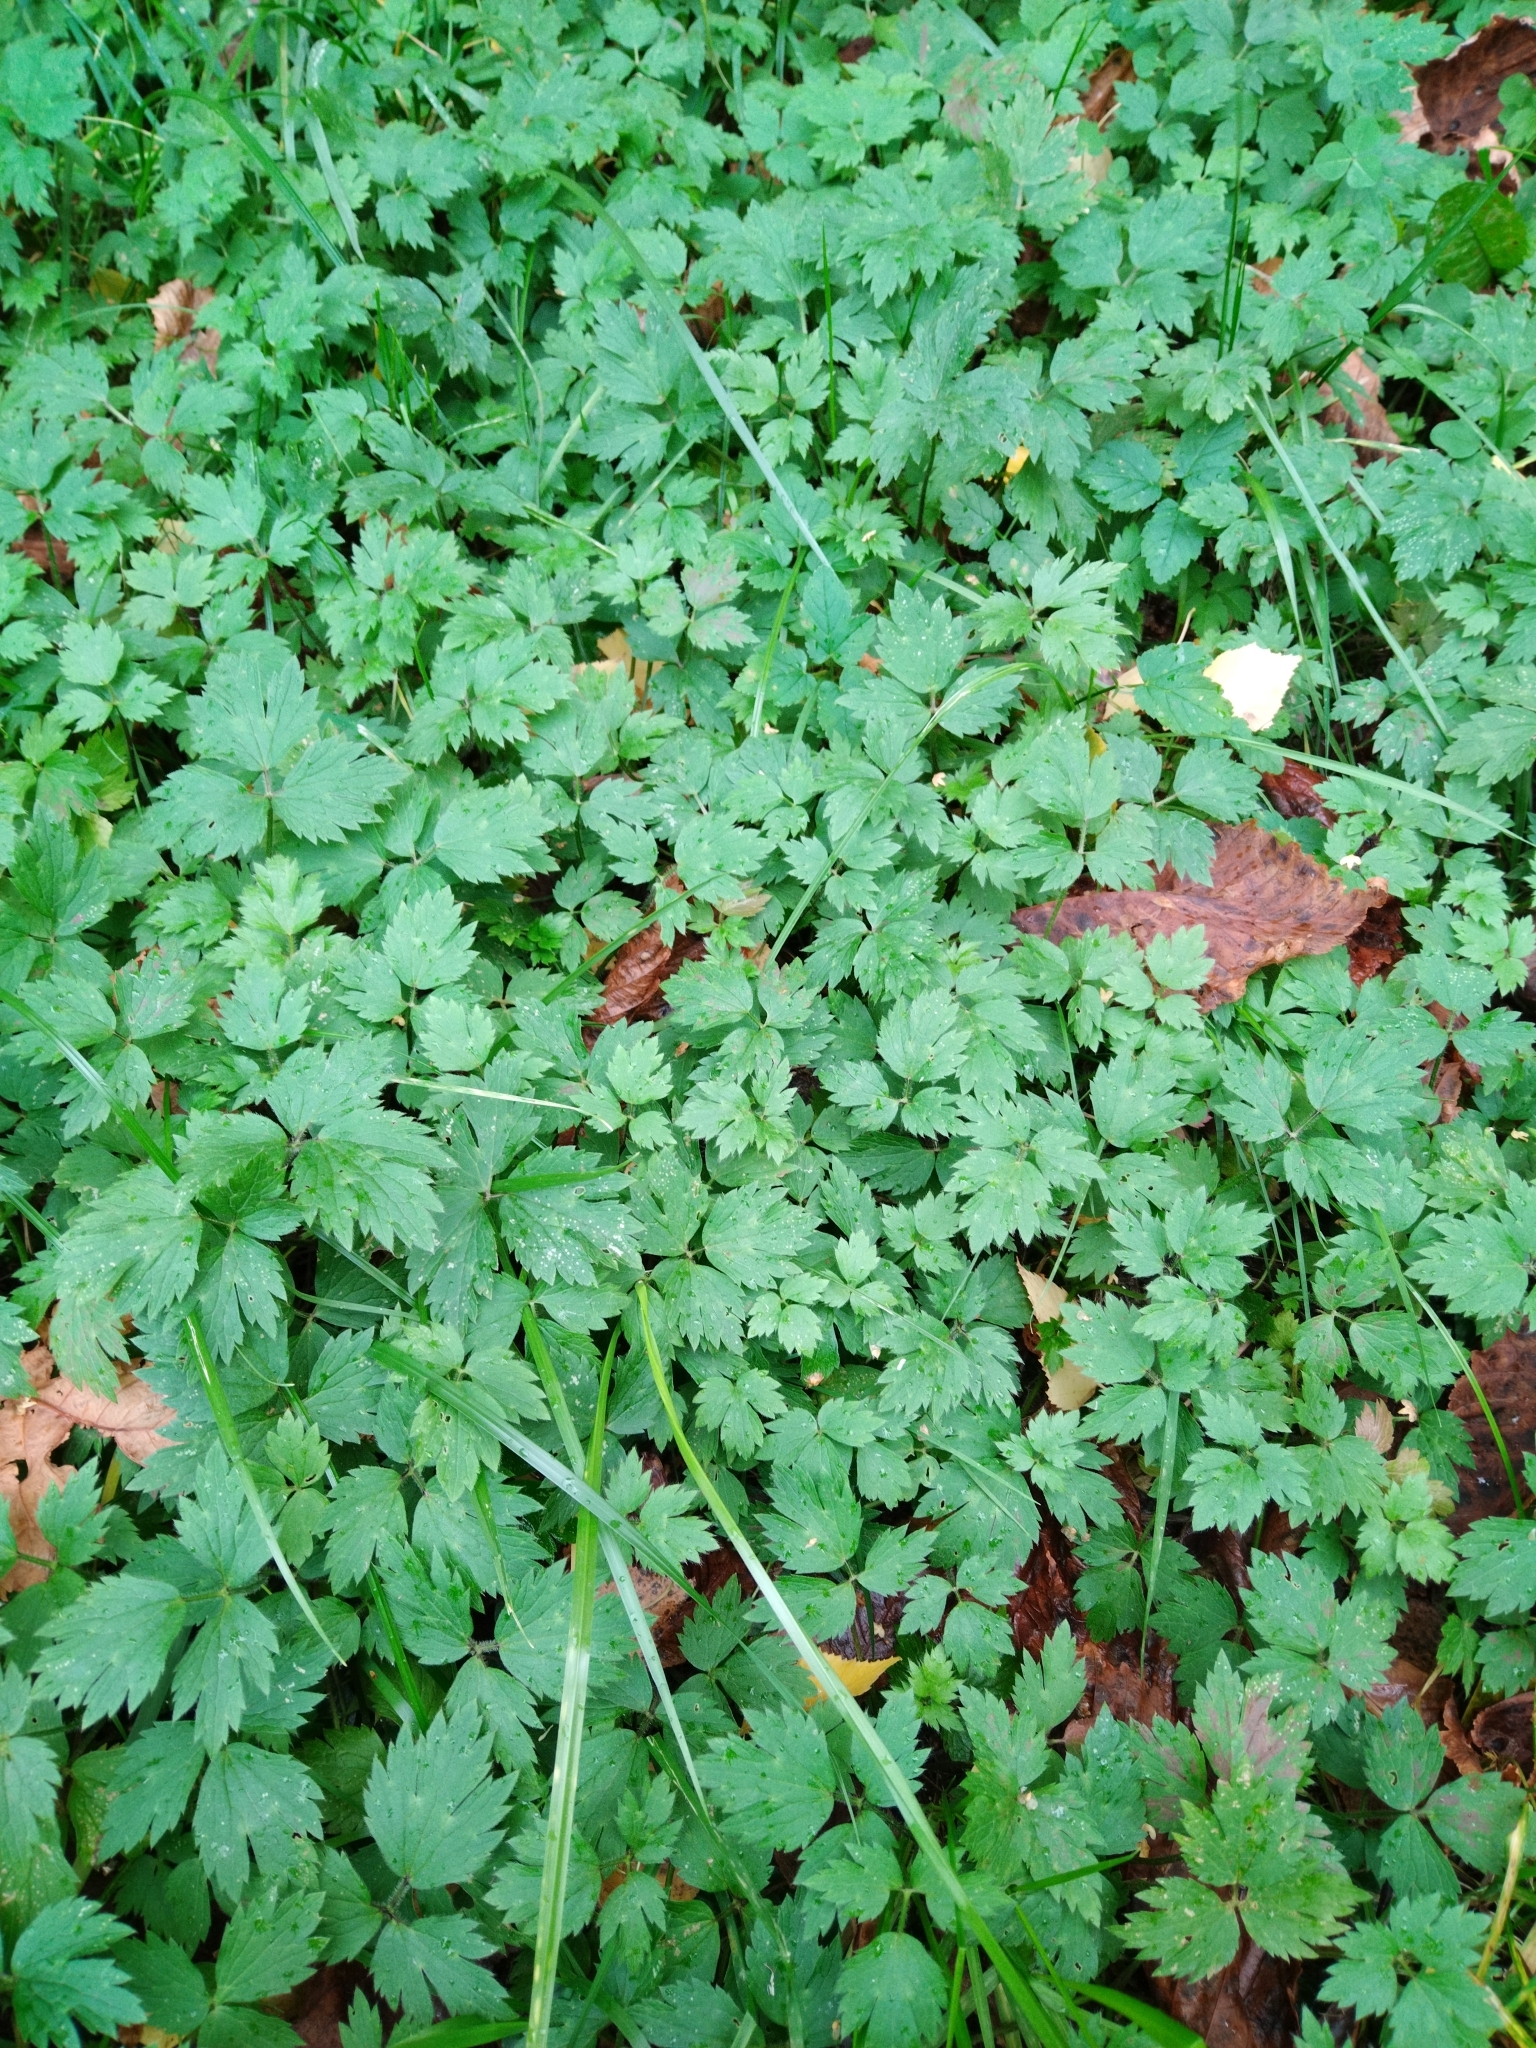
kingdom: Plantae
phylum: Tracheophyta
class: Magnoliopsida
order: Ranunculales
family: Ranunculaceae
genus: Ranunculus
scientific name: Ranunculus repens
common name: Creeping buttercup
